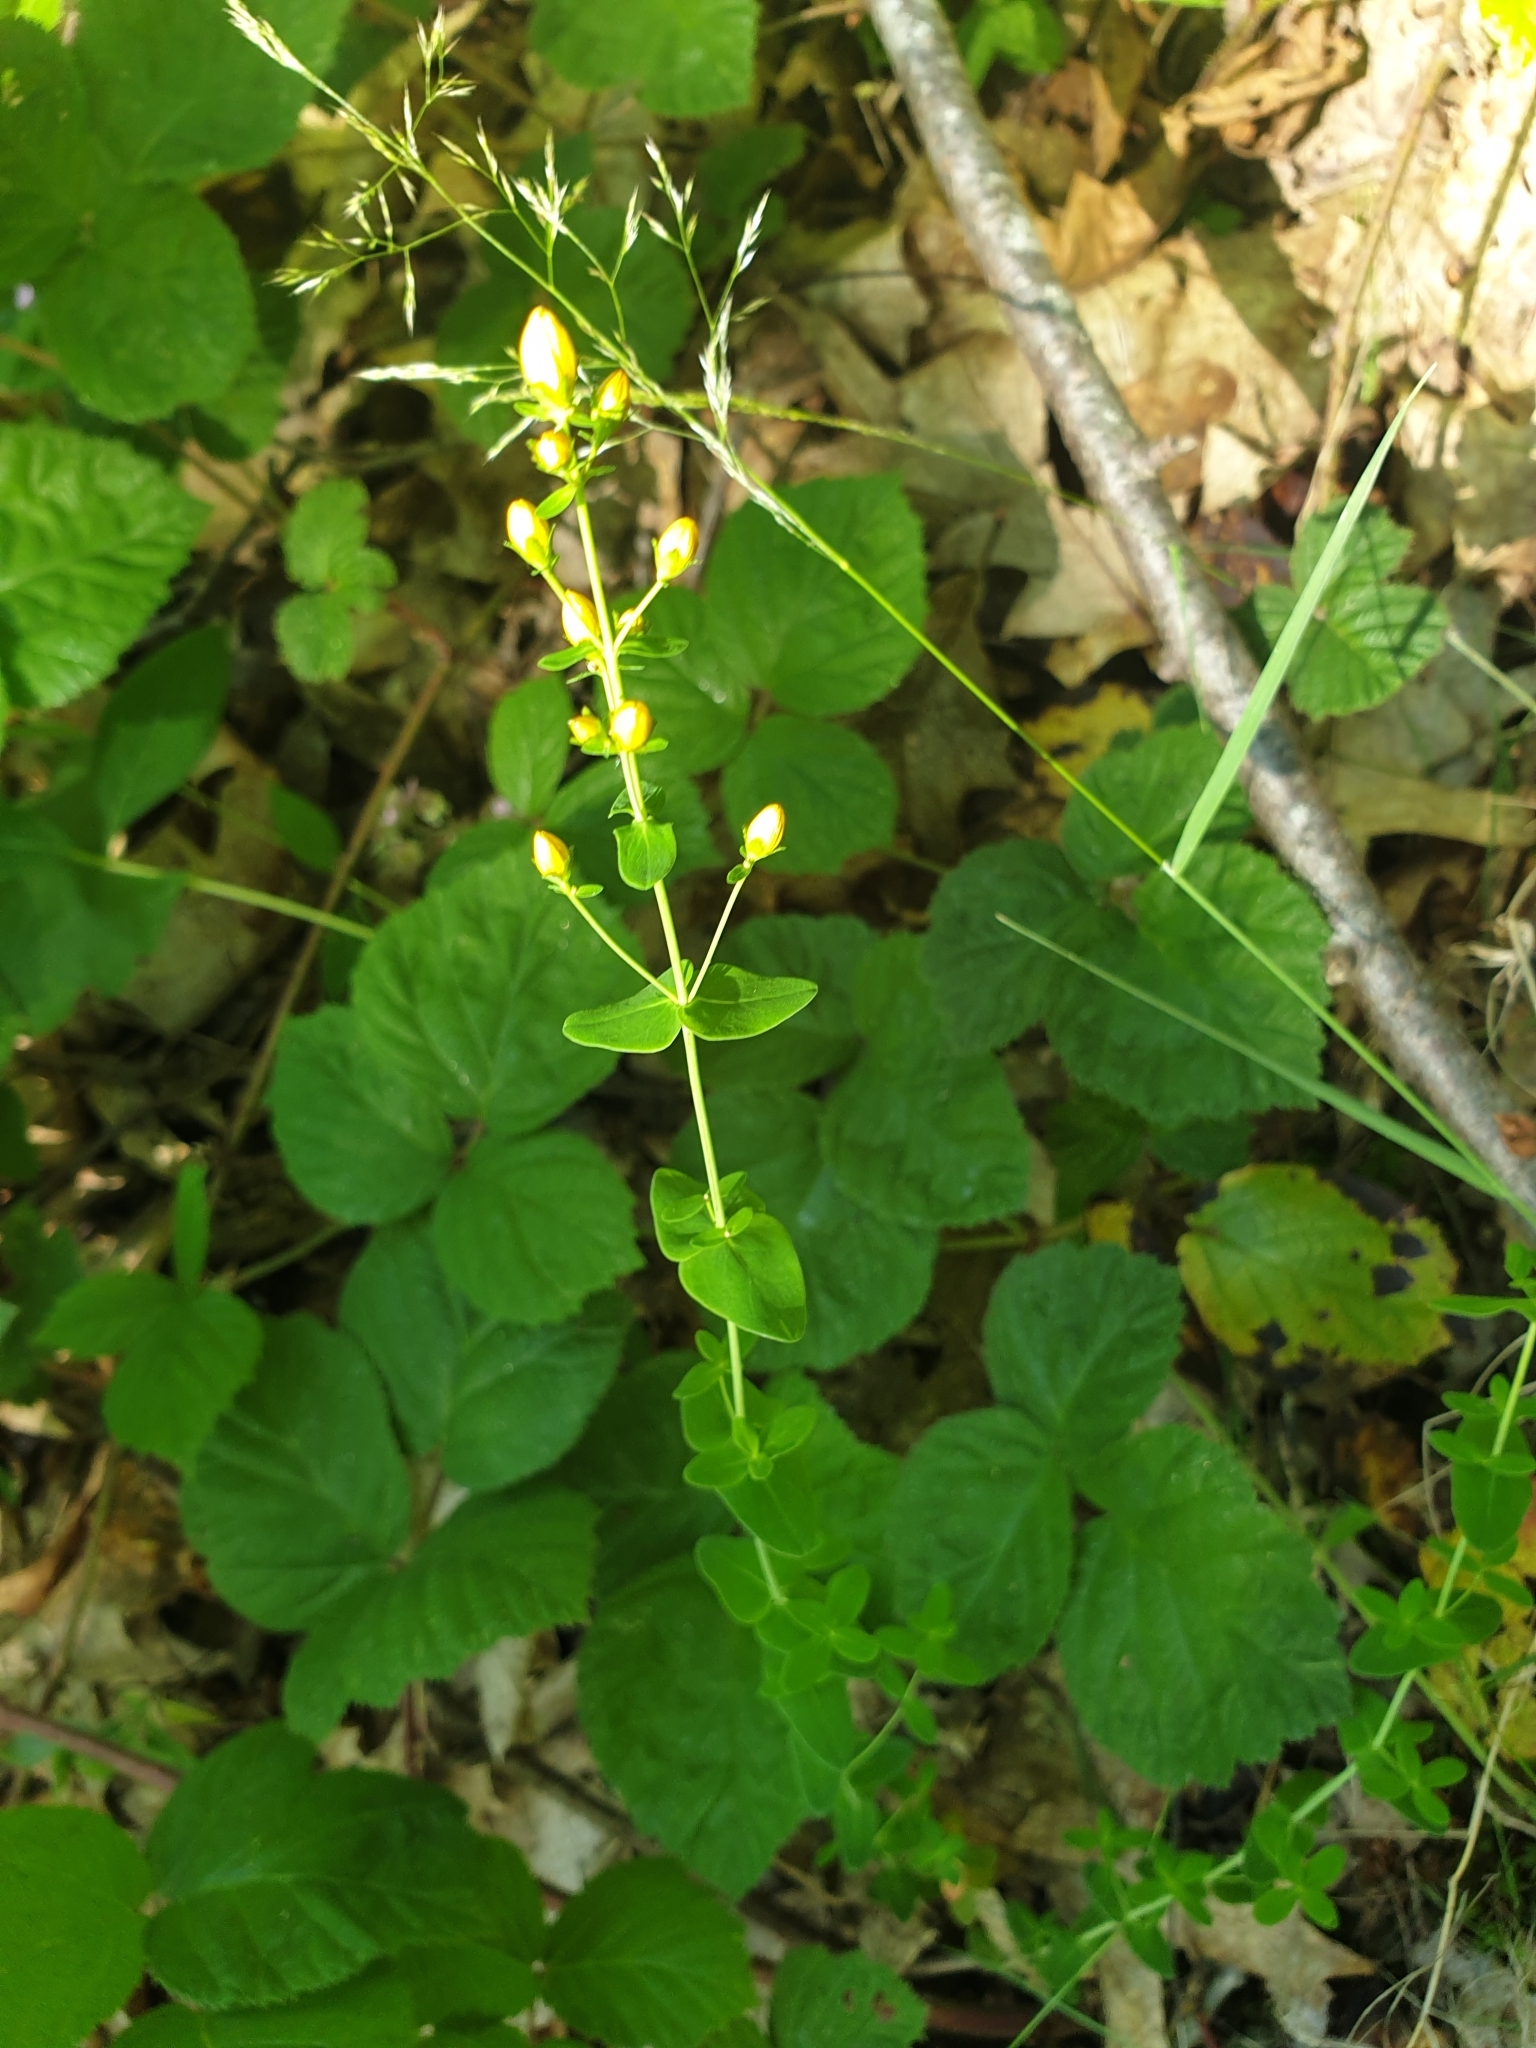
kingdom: Plantae
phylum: Tracheophyta
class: Magnoliopsida
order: Malpighiales
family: Hypericaceae
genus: Hypericum
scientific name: Hypericum pulchrum
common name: Slender st. john's-wort
